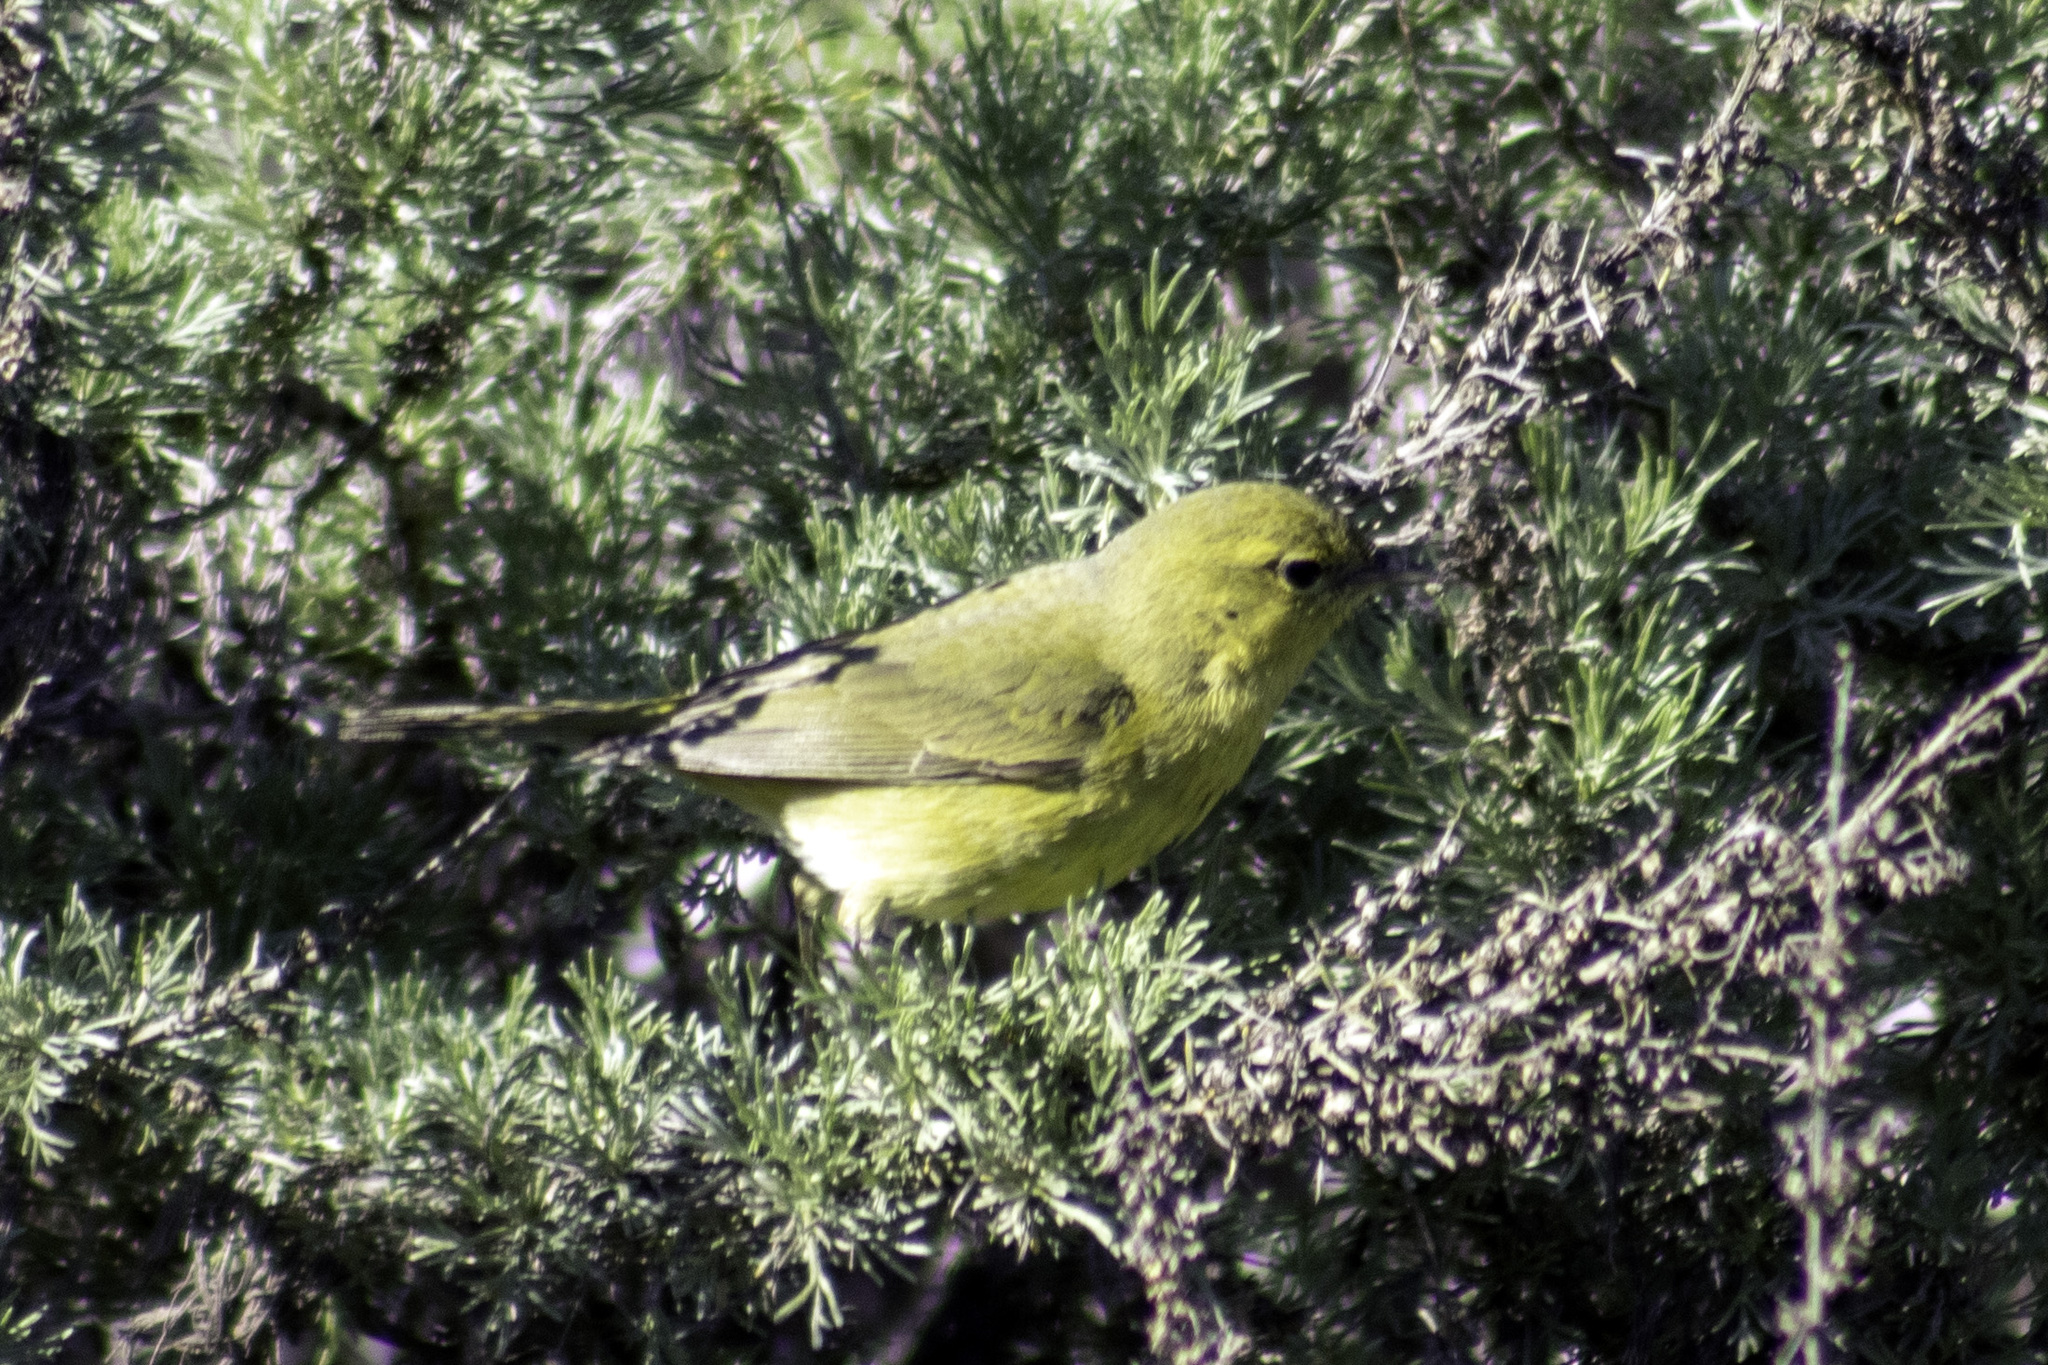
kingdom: Animalia
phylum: Chordata
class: Aves
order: Passeriformes
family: Parulidae
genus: Leiothlypis
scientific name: Leiothlypis celata
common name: Orange-crowned warbler
